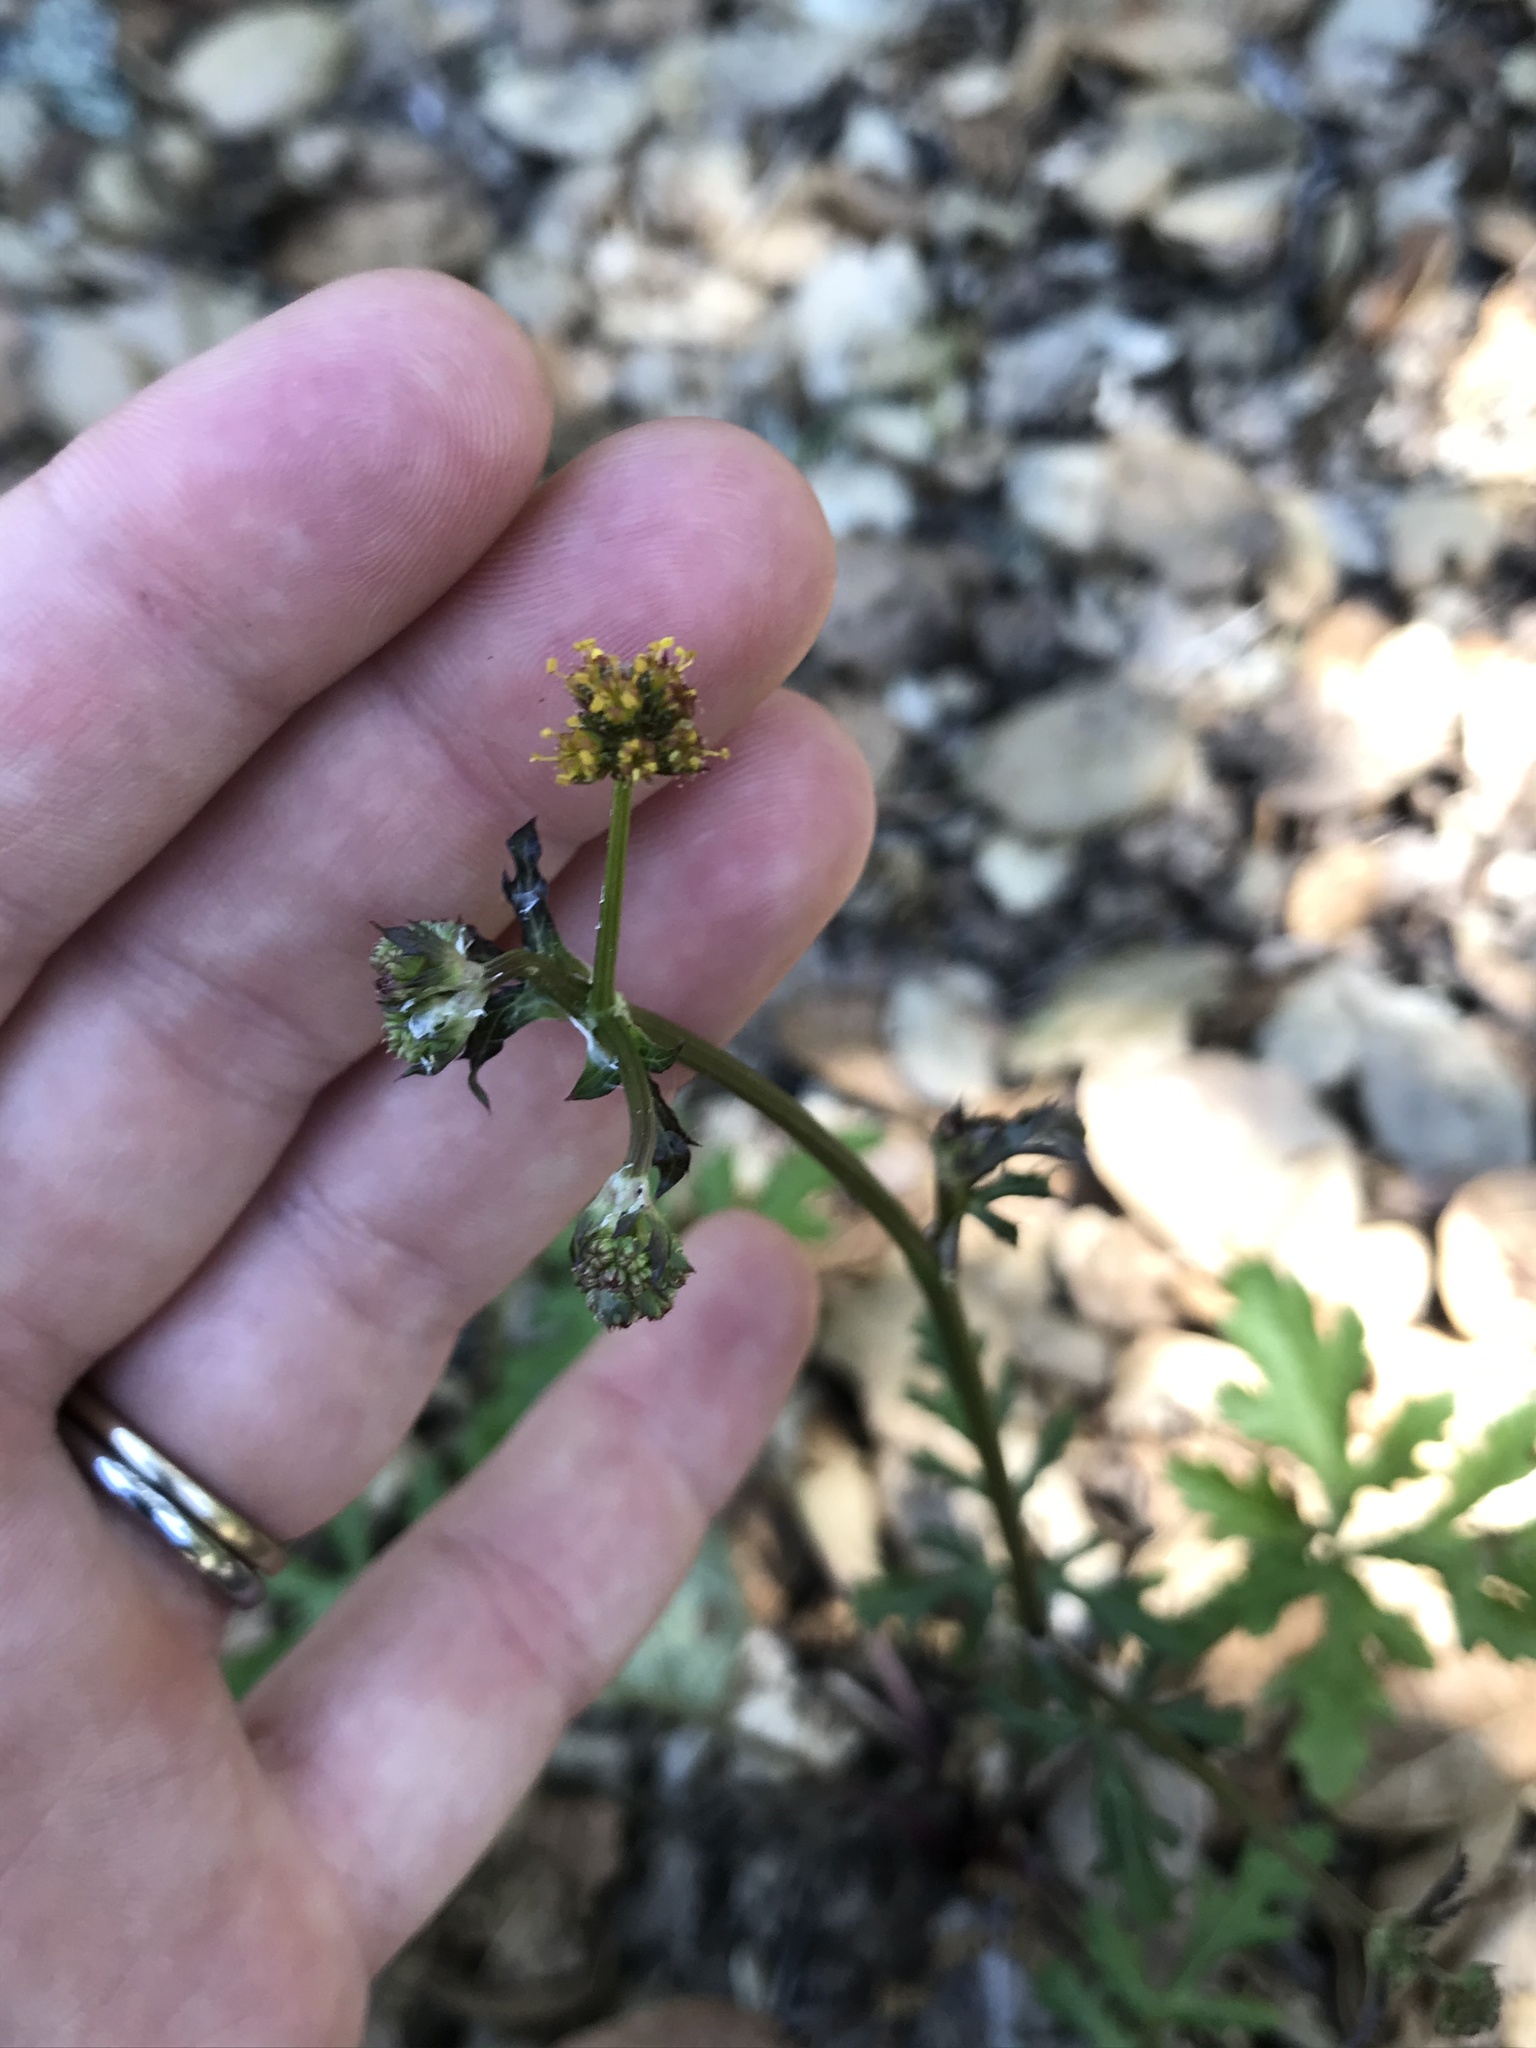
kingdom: Plantae
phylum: Tracheophyta
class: Magnoliopsida
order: Apiales
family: Apiaceae
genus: Sanicula
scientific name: Sanicula hoffmannii
